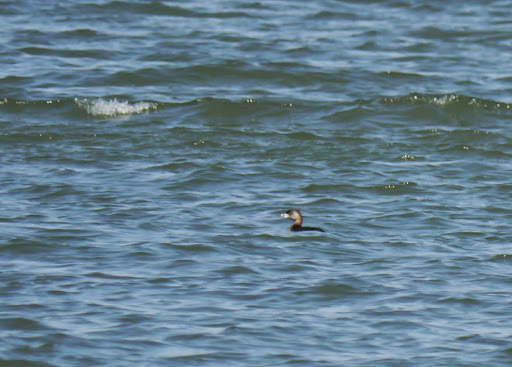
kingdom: Animalia
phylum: Chordata
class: Aves
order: Podicipediformes
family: Podicipedidae
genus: Podilymbus
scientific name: Podilymbus podiceps
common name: Pied-billed grebe
